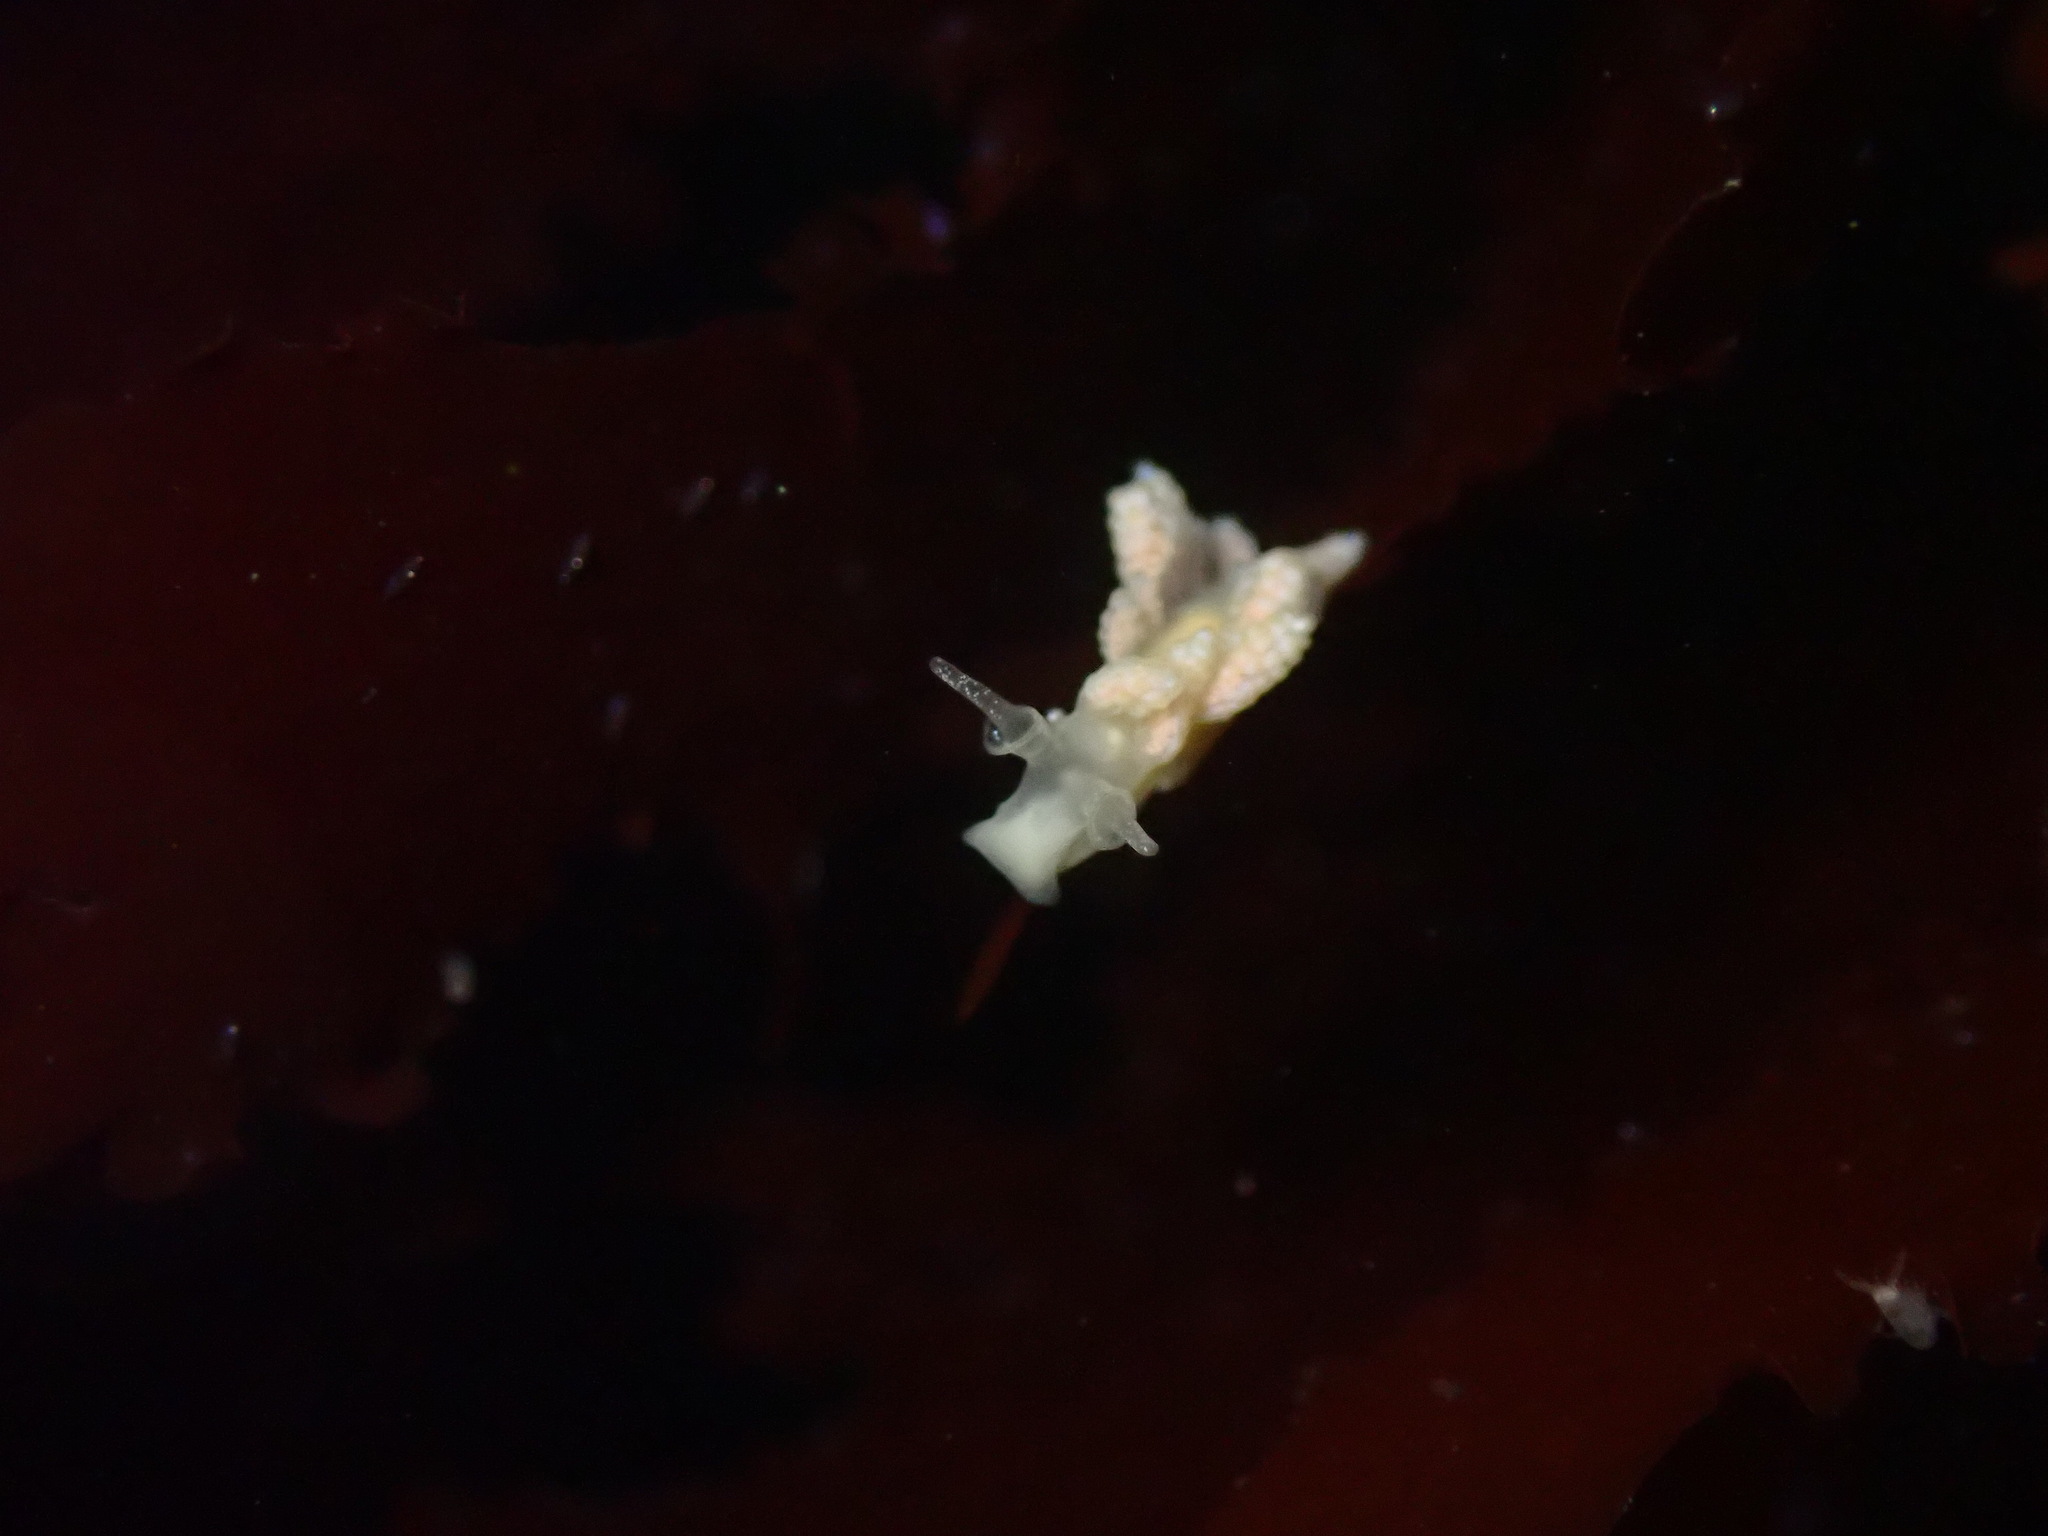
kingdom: Animalia
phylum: Mollusca
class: Gastropoda
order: Nudibranchia
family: Dotidae
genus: Doto
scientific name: Doto amyra
